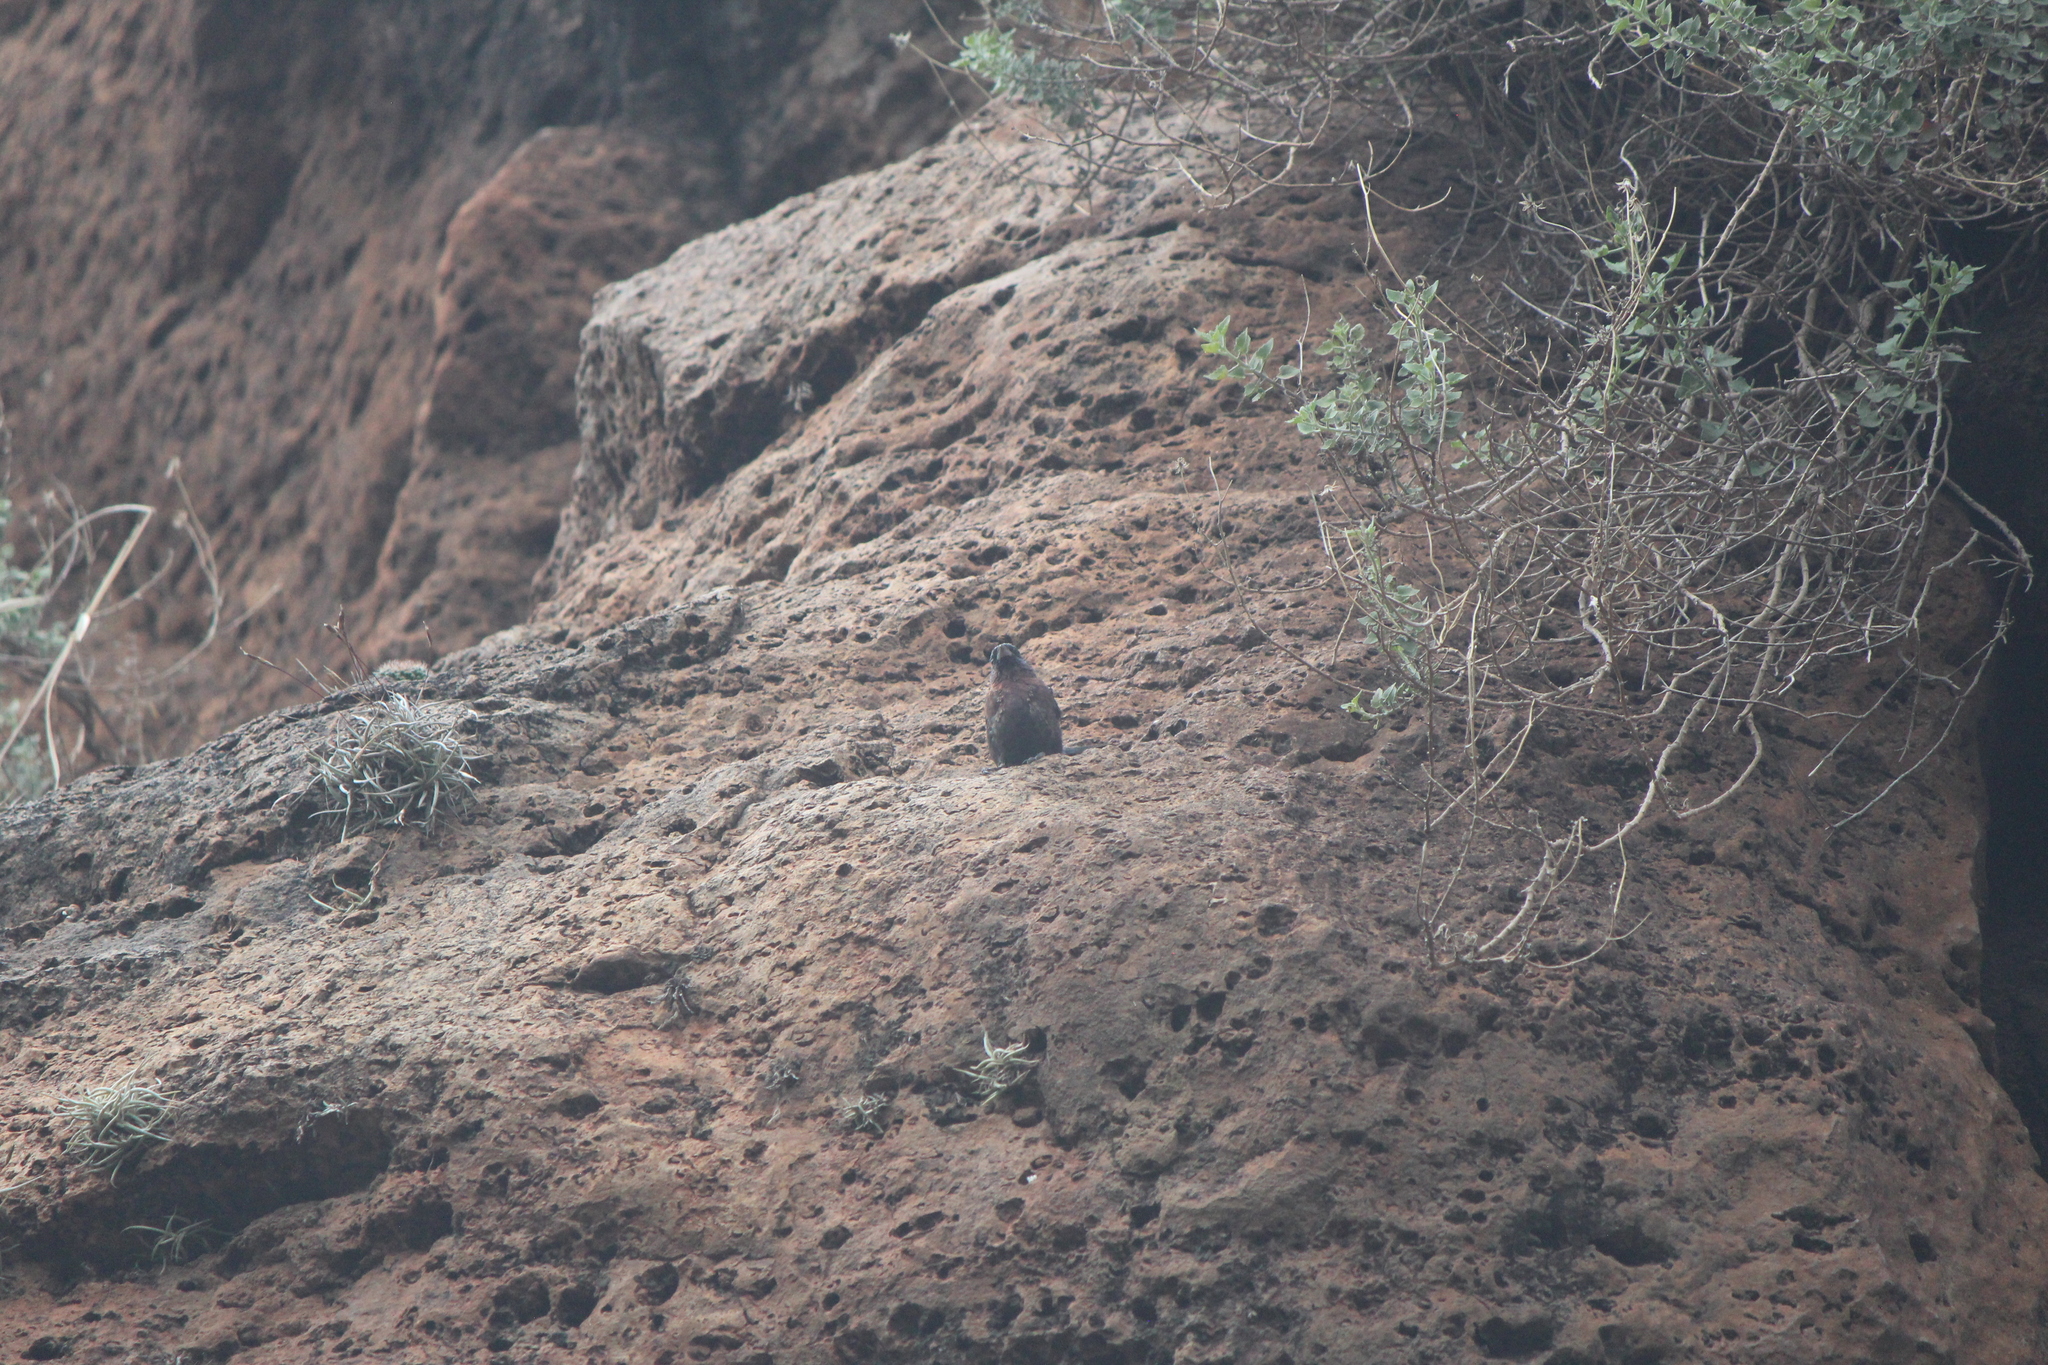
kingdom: Animalia
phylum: Chordata
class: Aves
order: Passeriformes
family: Cardinalidae
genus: Passerina
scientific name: Passerina versicolor
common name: Varied bunting
